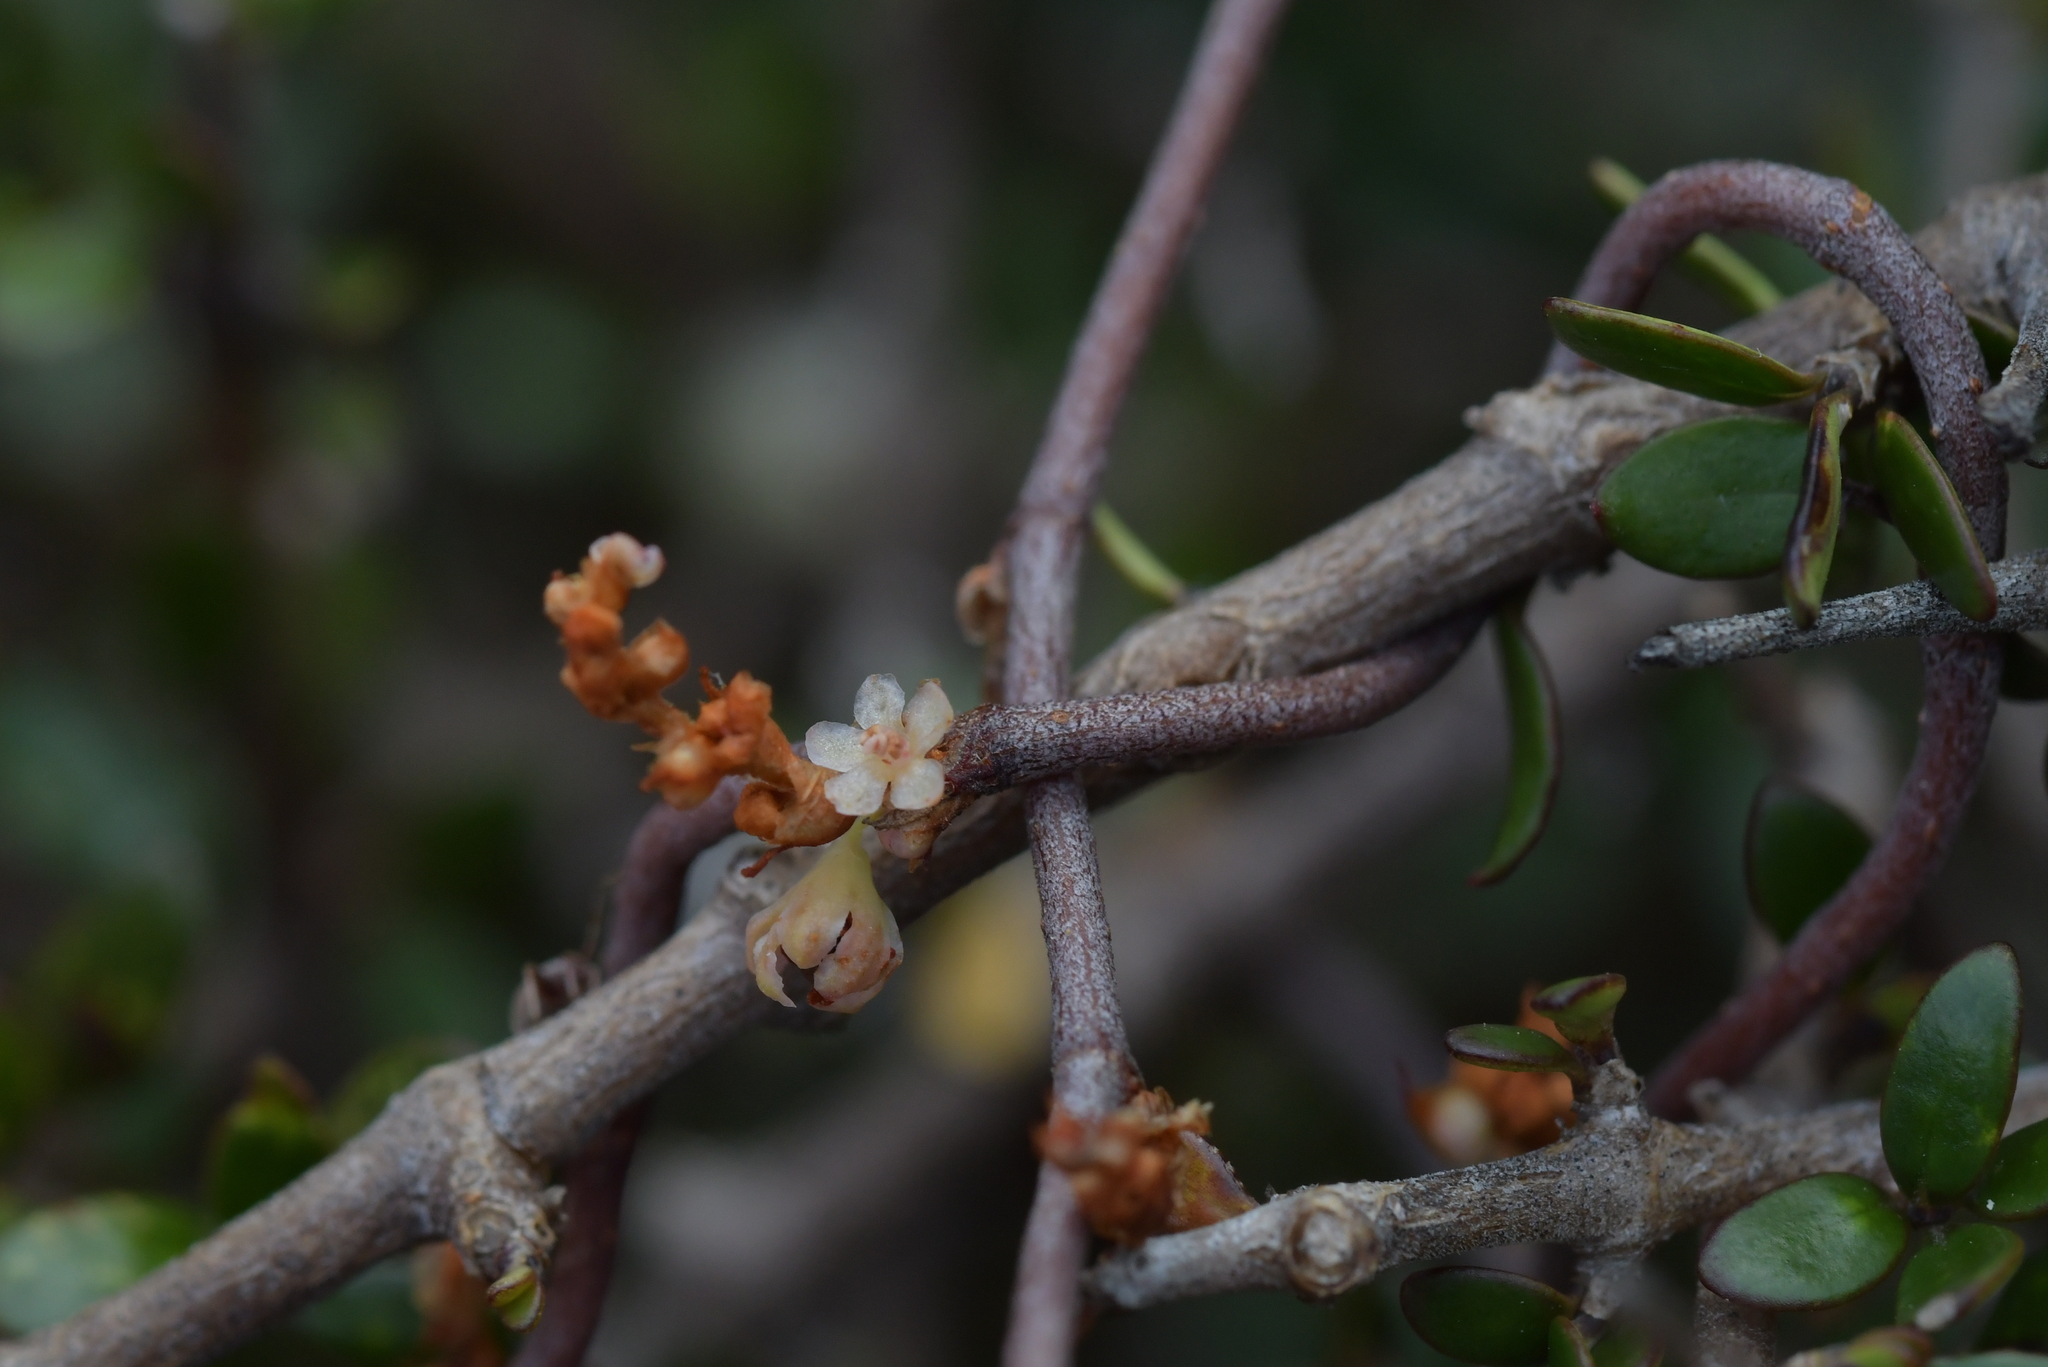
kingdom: Plantae
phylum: Tracheophyta
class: Magnoliopsida
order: Caryophyllales
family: Polygonaceae
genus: Muehlenbeckia
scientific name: Muehlenbeckia complexa
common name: Wireplant
